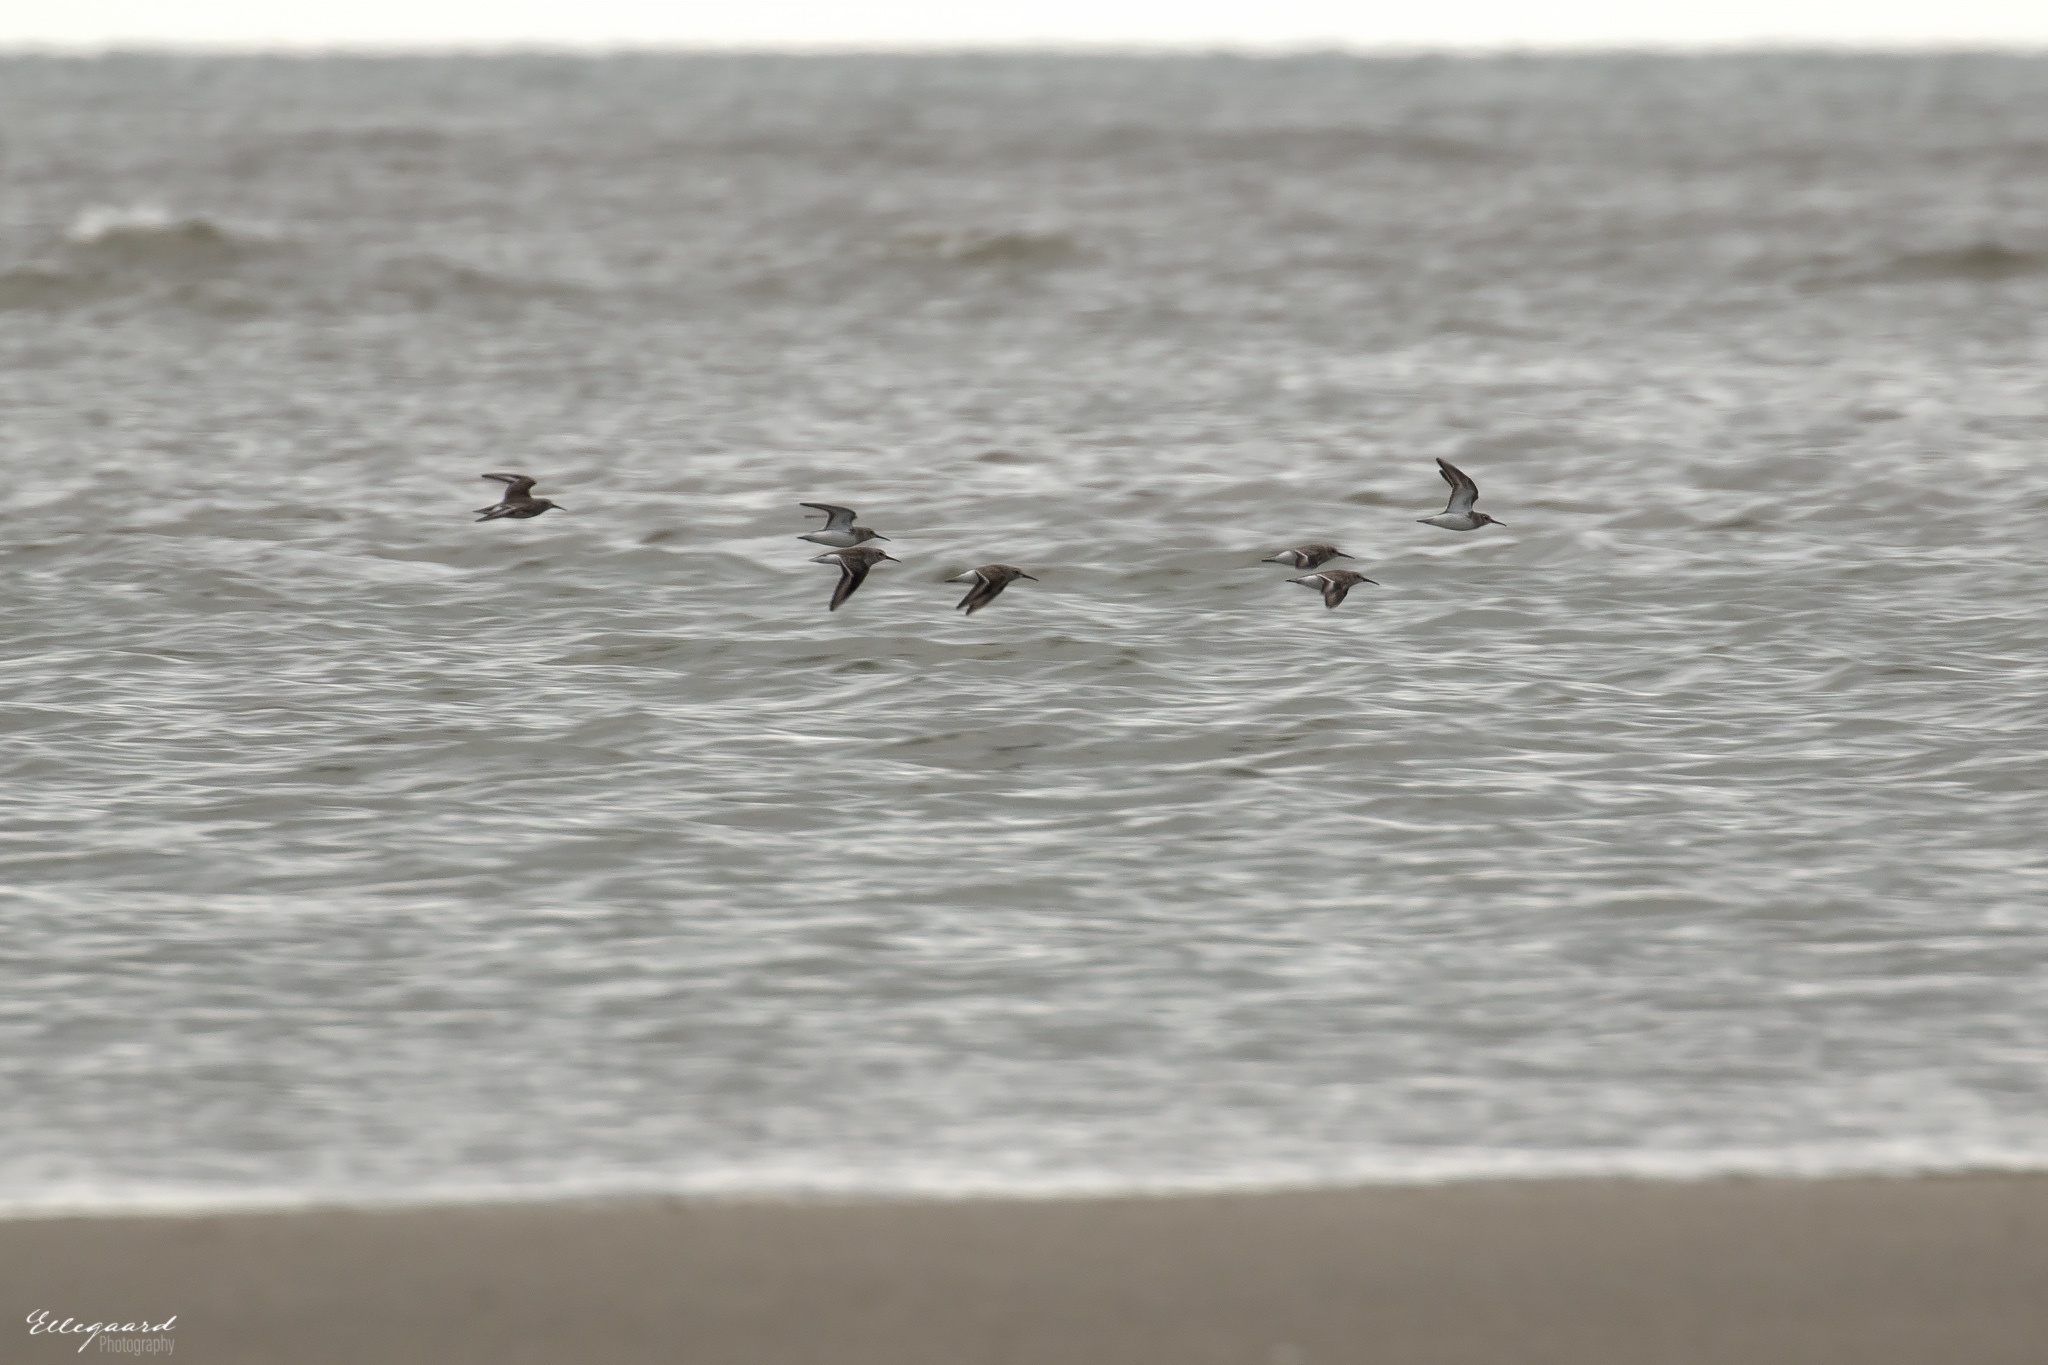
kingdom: Animalia
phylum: Chordata
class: Aves
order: Charadriiformes
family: Scolopacidae
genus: Calidris
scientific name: Calidris alpina
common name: Dunlin
